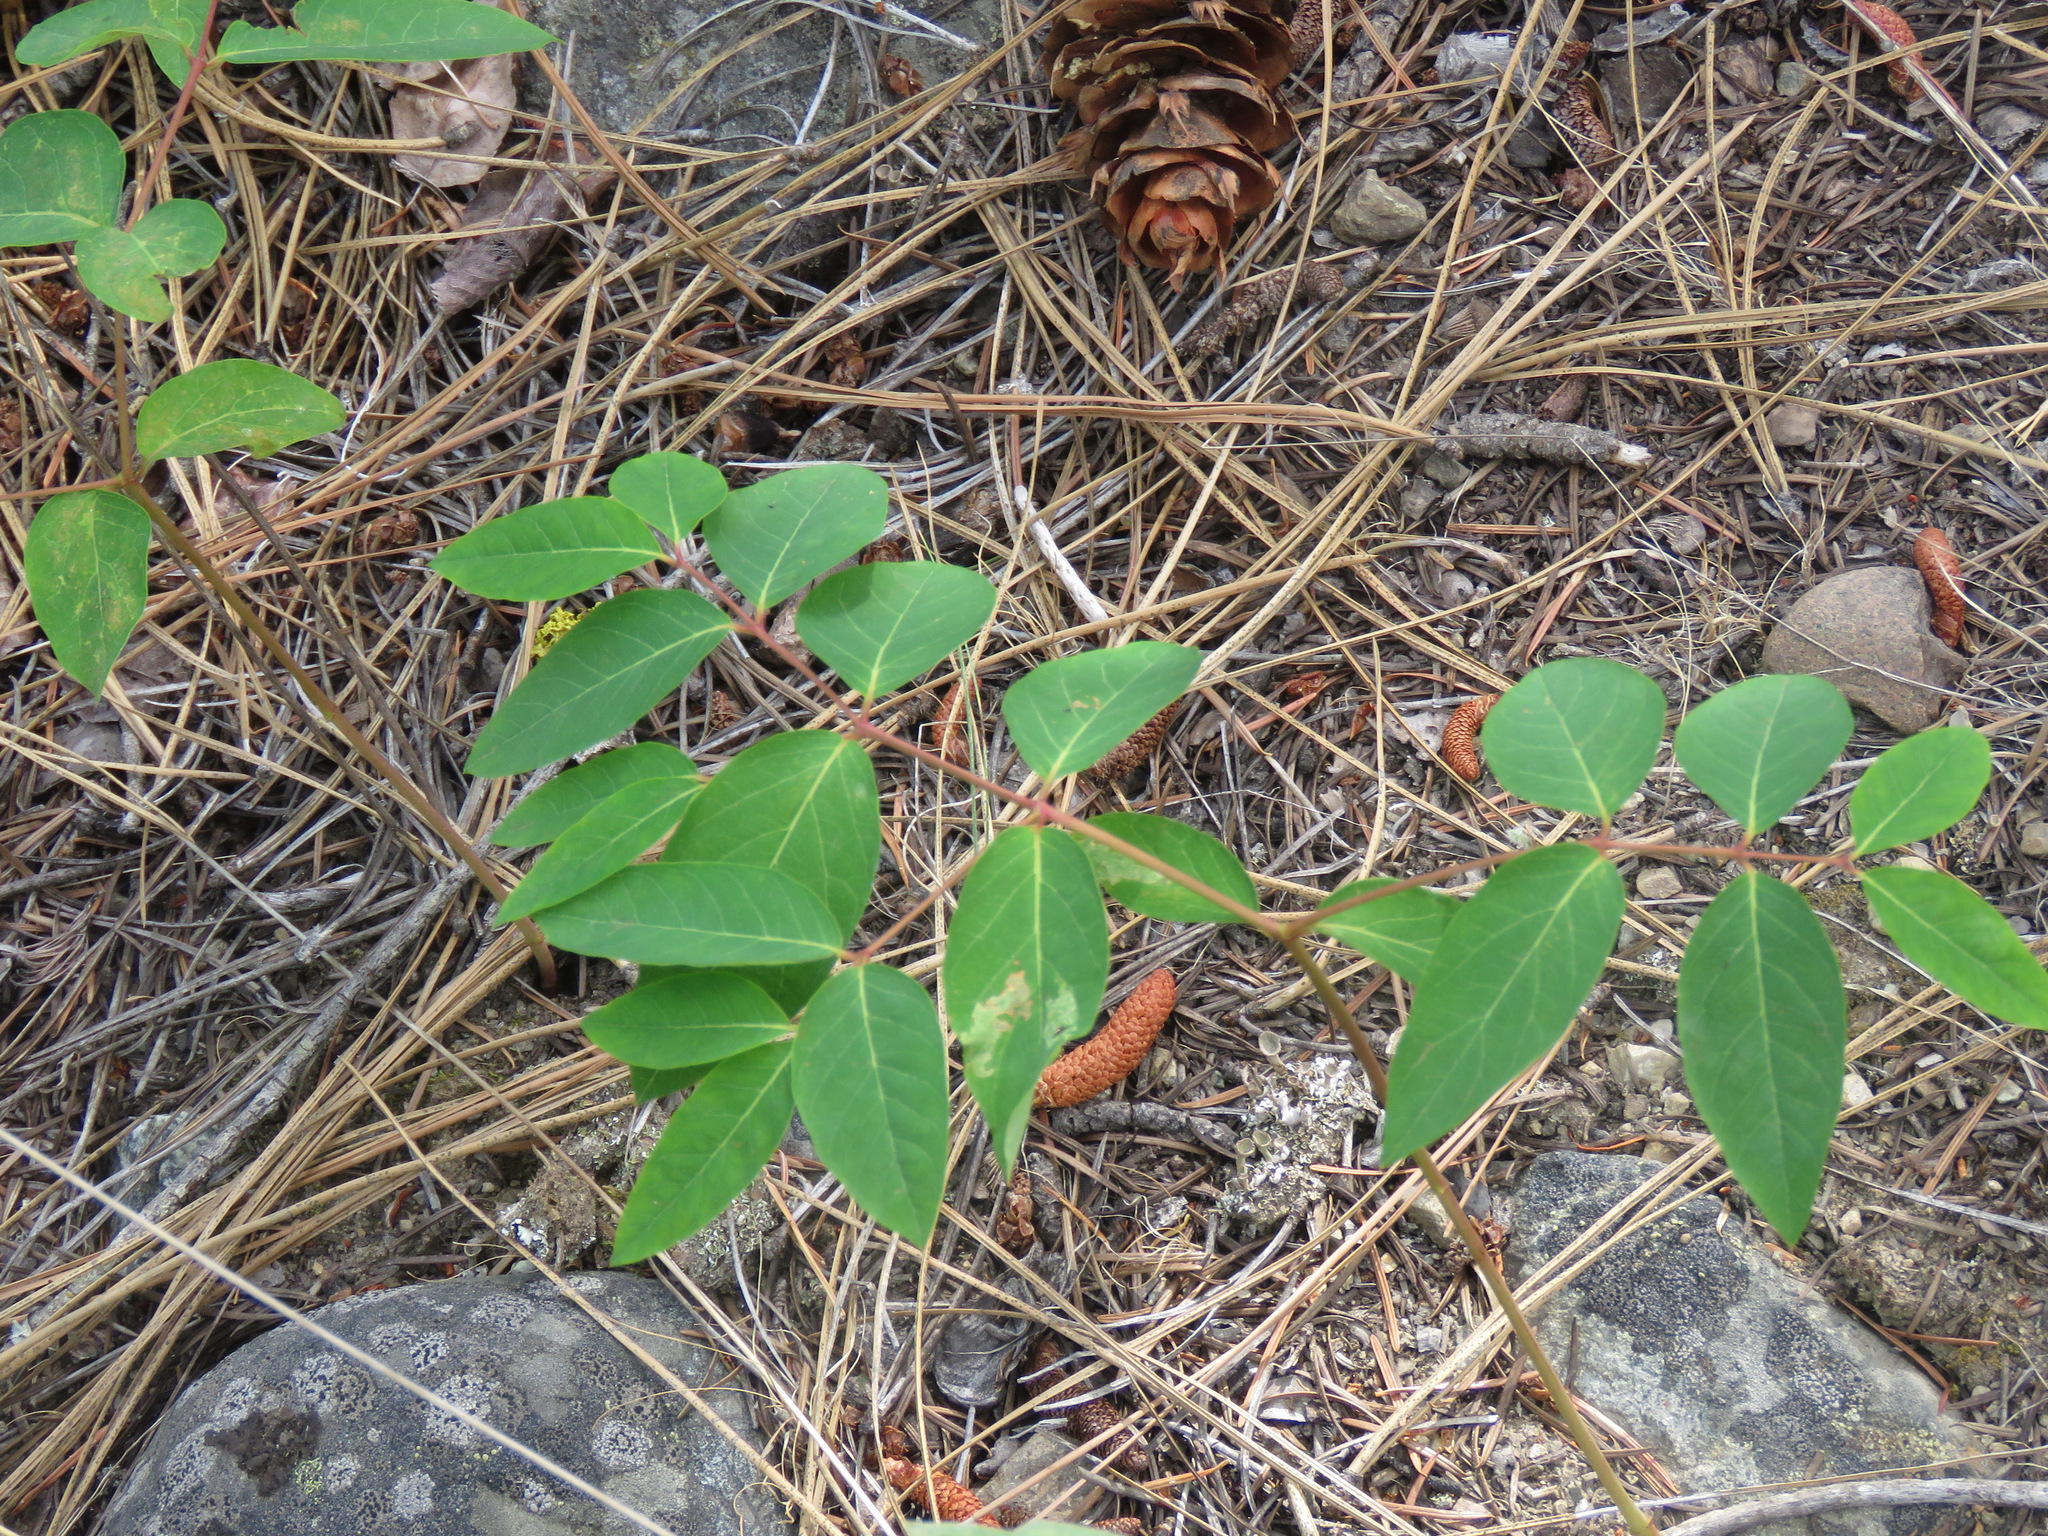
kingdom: Plantae
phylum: Tracheophyta
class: Magnoliopsida
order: Gentianales
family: Apocynaceae
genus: Apocynum
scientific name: Apocynum androsaemifolium
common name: Spreading dogbane
